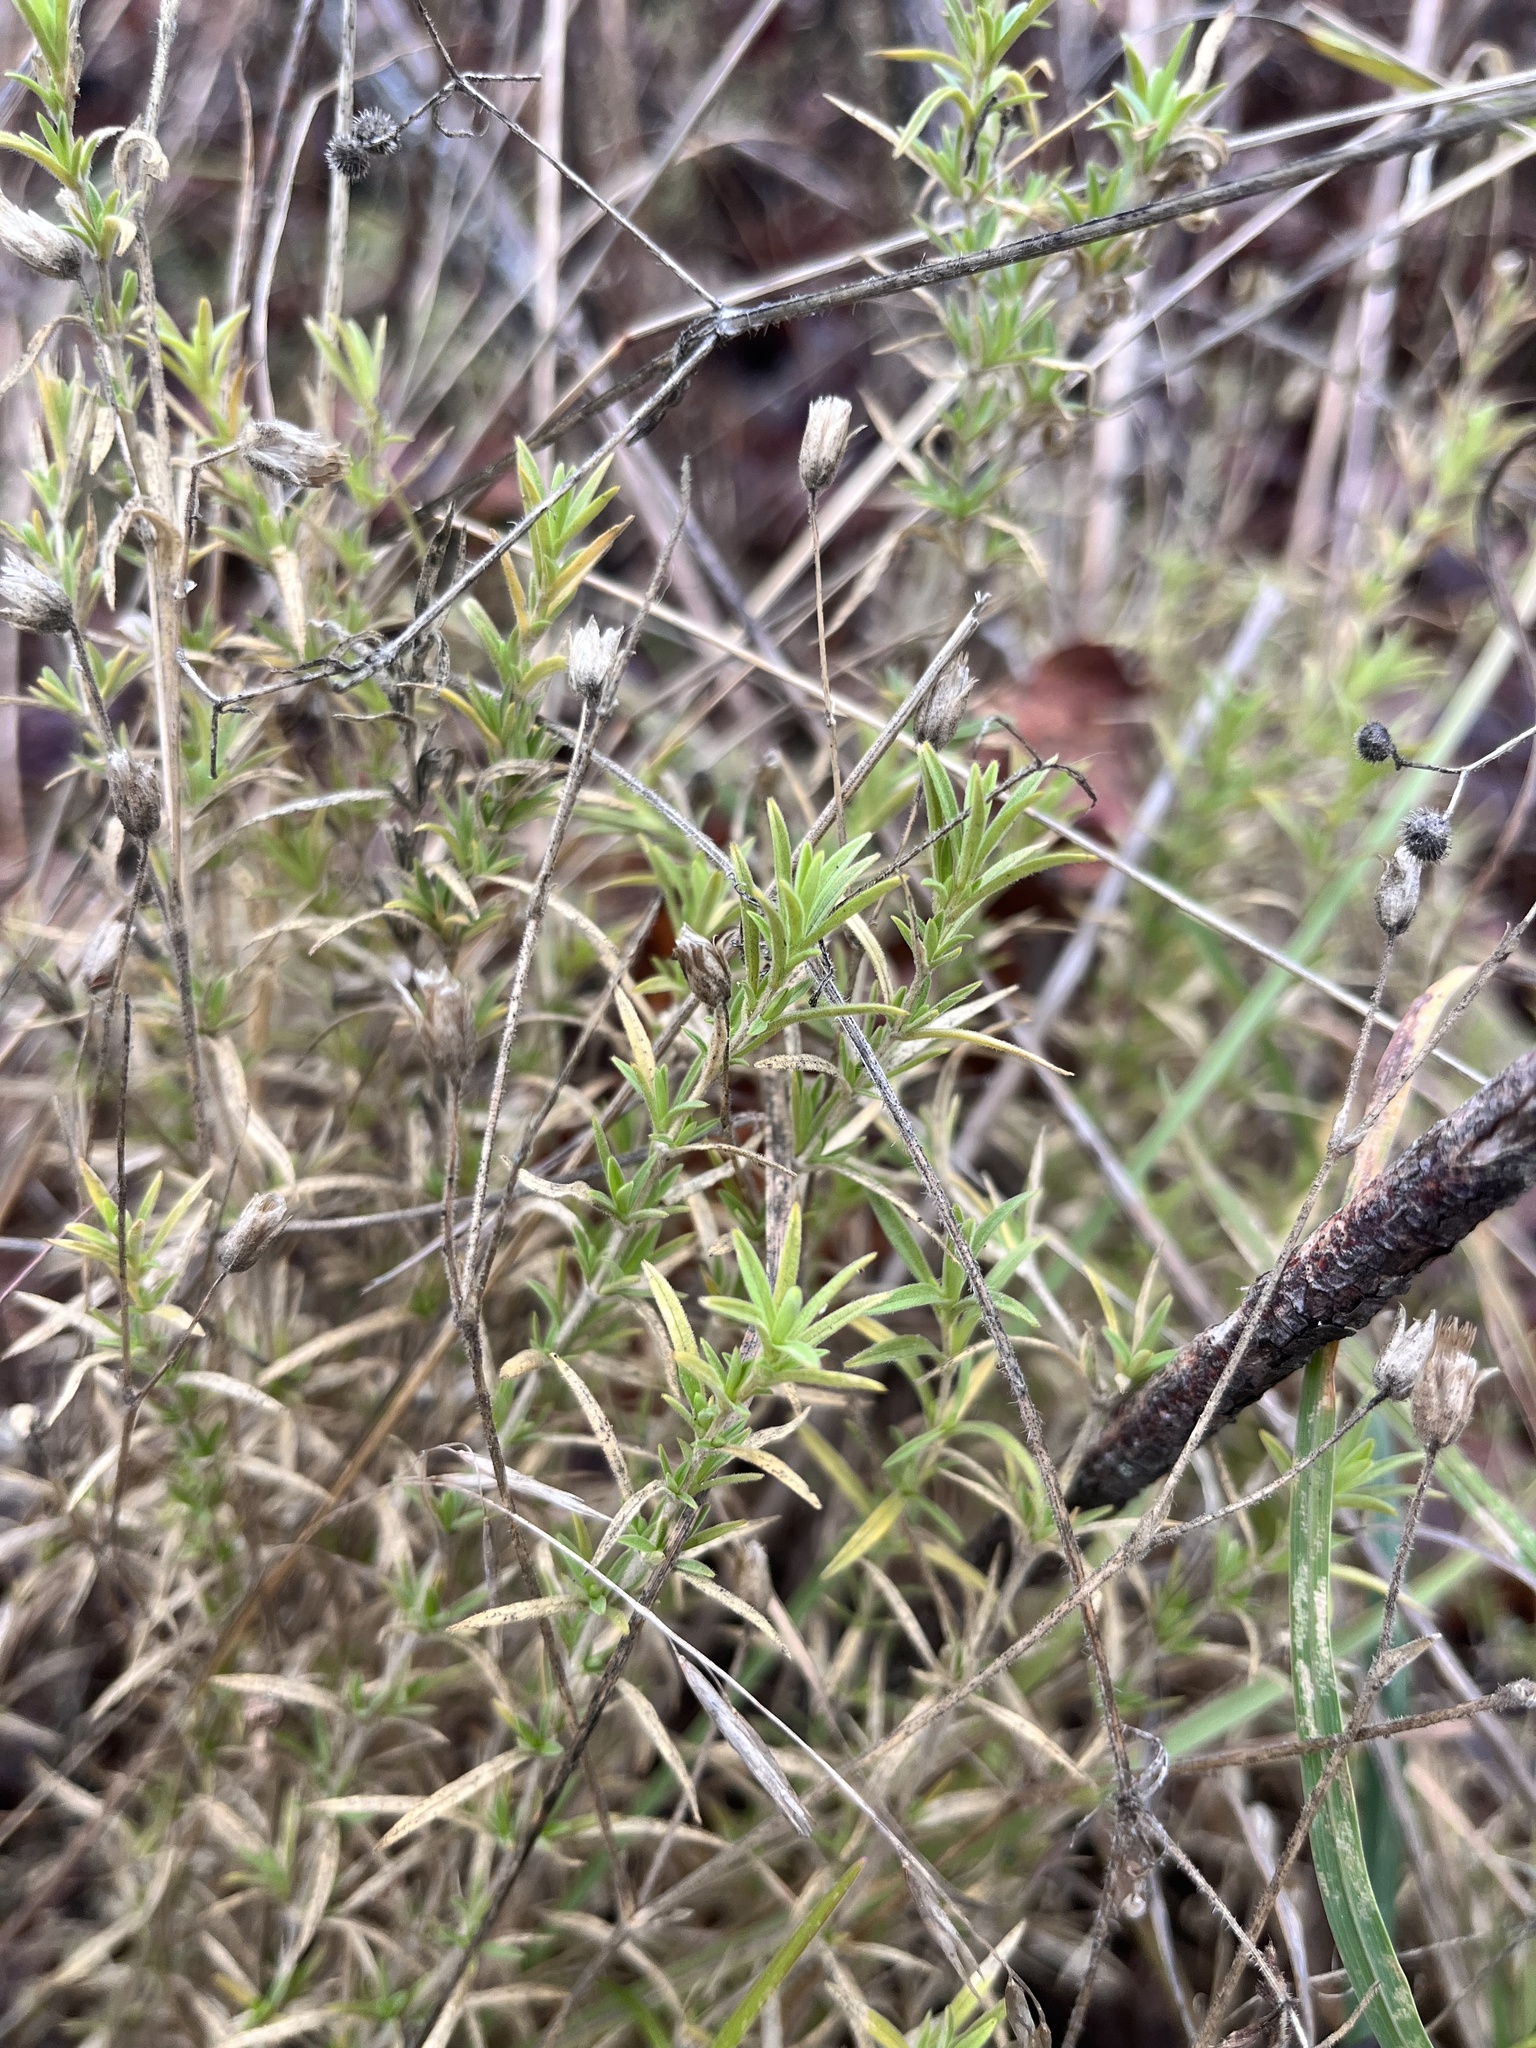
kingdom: Plantae
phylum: Tracheophyta
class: Magnoliopsida
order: Caryophyllales
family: Caryophyllaceae
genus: Cerastium
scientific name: Cerastium arvense
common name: Field mouse-ear
